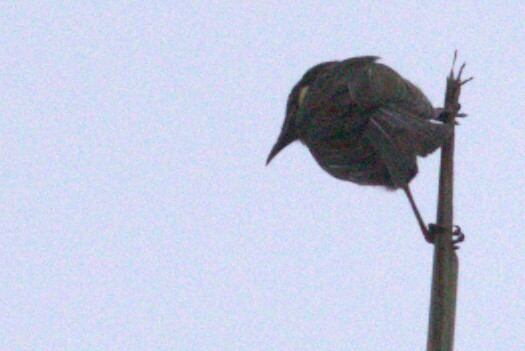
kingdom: Animalia
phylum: Chordata
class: Aves
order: Passeriformes
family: Meliphagidae
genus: Meliphaga
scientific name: Meliphaga lewinii
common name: Lewin's honeyeater
